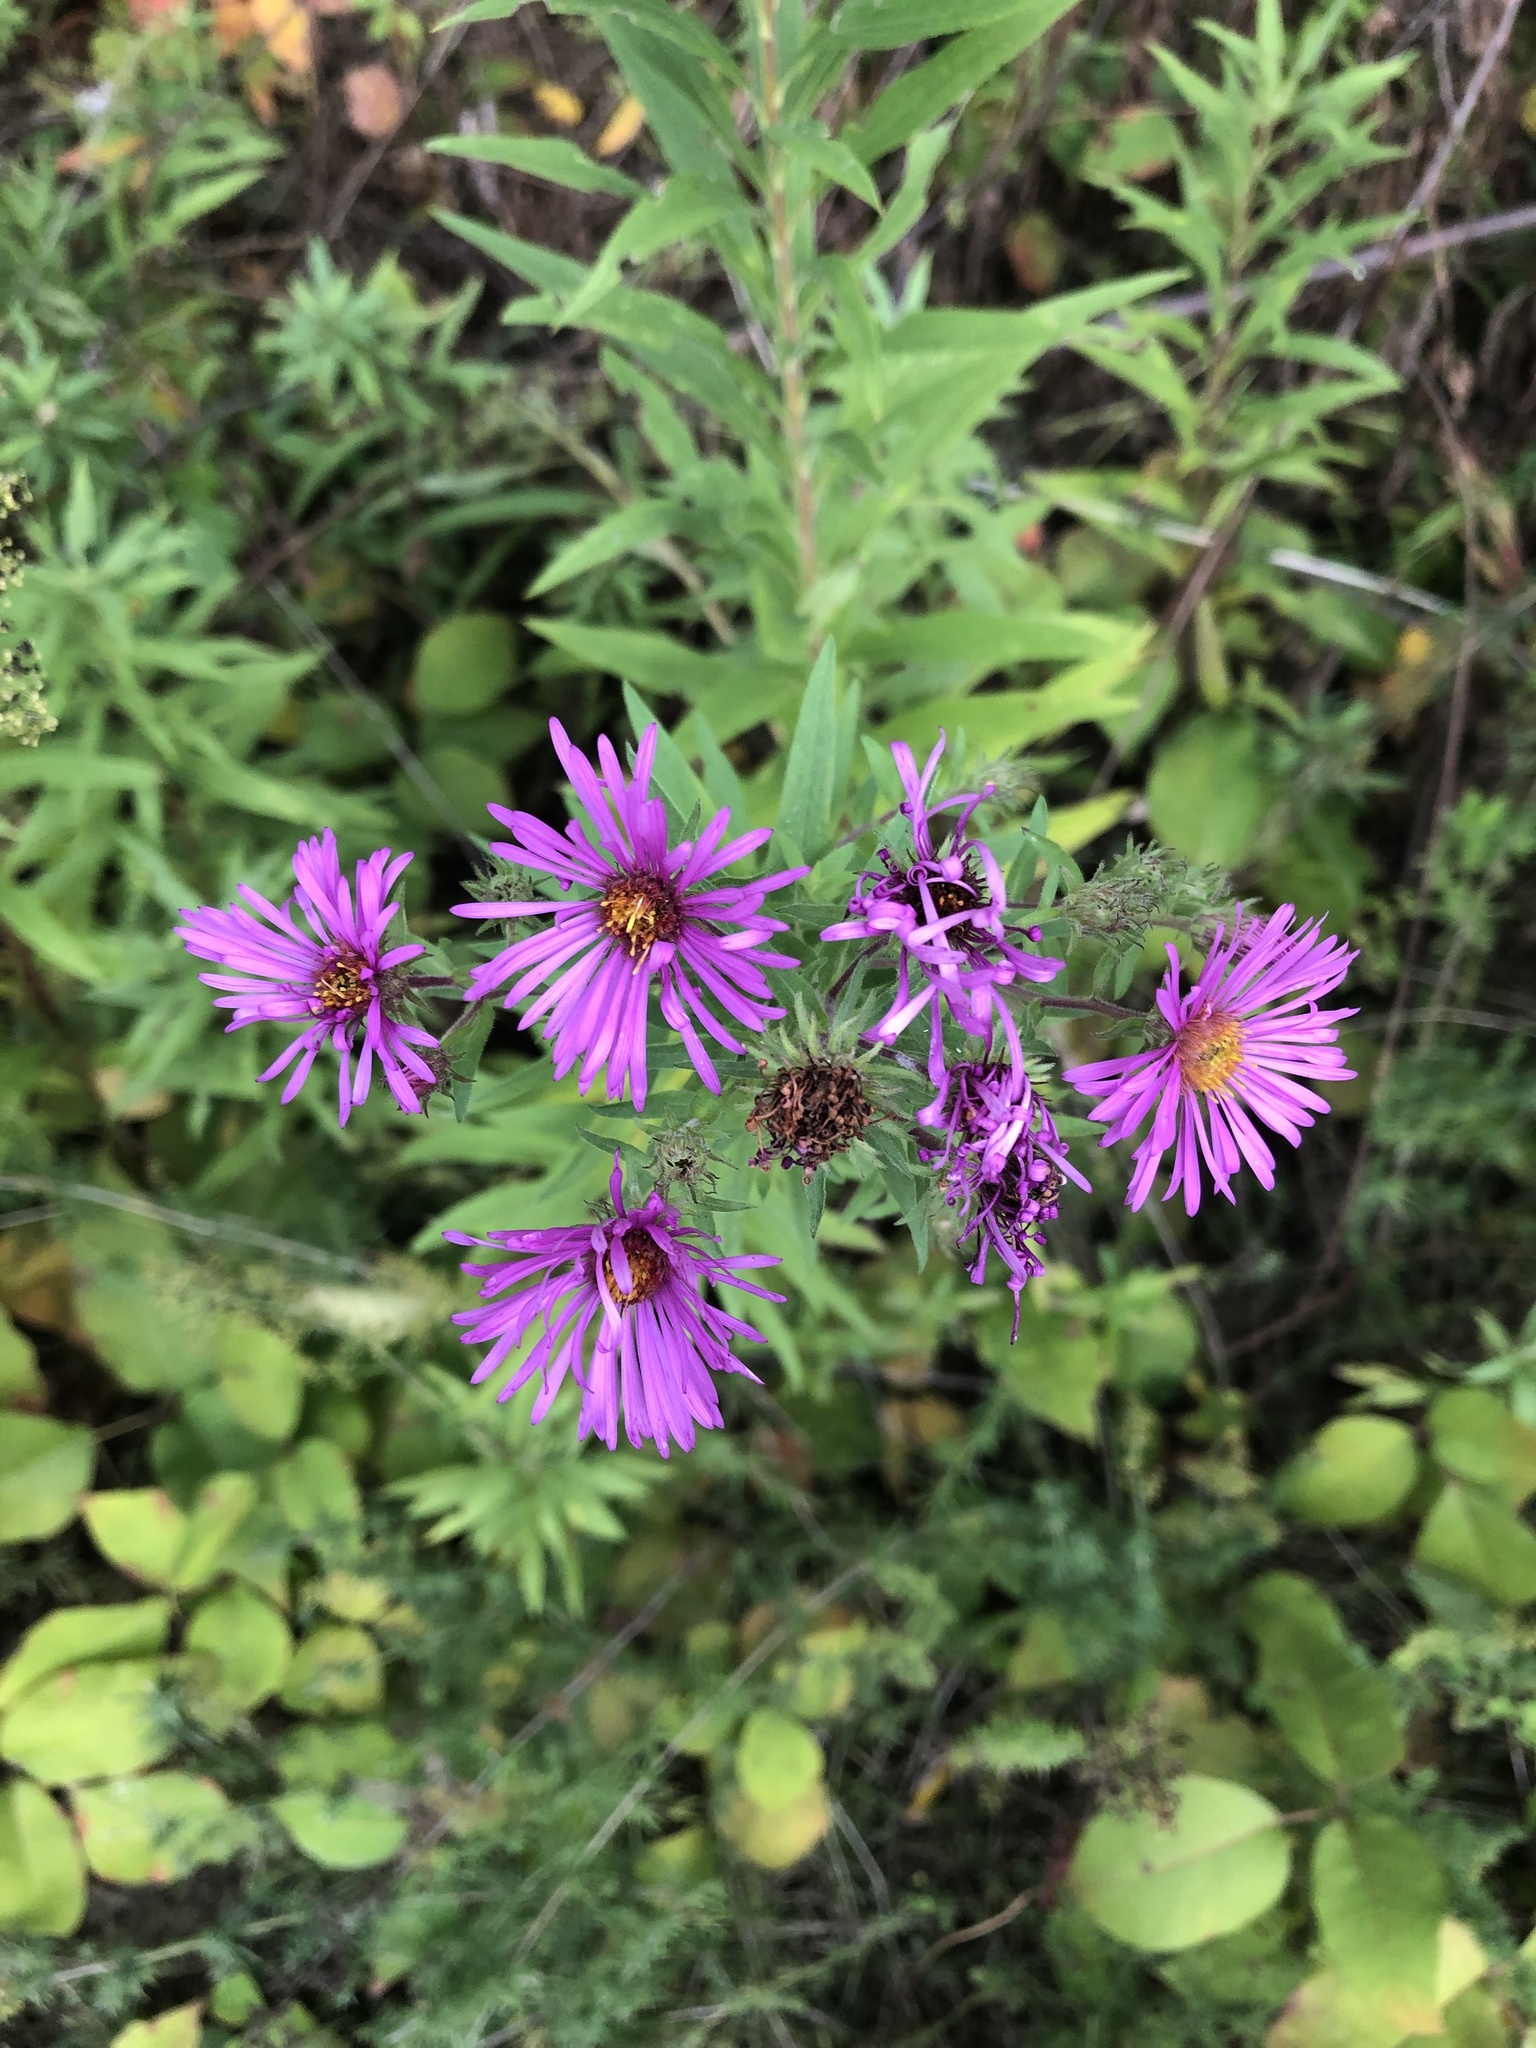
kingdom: Plantae
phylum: Tracheophyta
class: Magnoliopsida
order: Asterales
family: Asteraceae
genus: Symphyotrichum
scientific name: Symphyotrichum novae-angliae
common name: Michaelmas daisy
